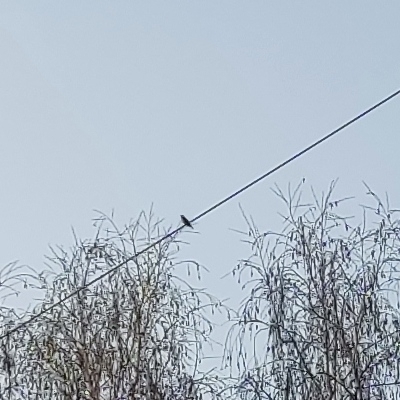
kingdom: Animalia
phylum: Chordata
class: Aves
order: Passeriformes
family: Turdidae
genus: Turdus
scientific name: Turdus iliacus
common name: Redwing
